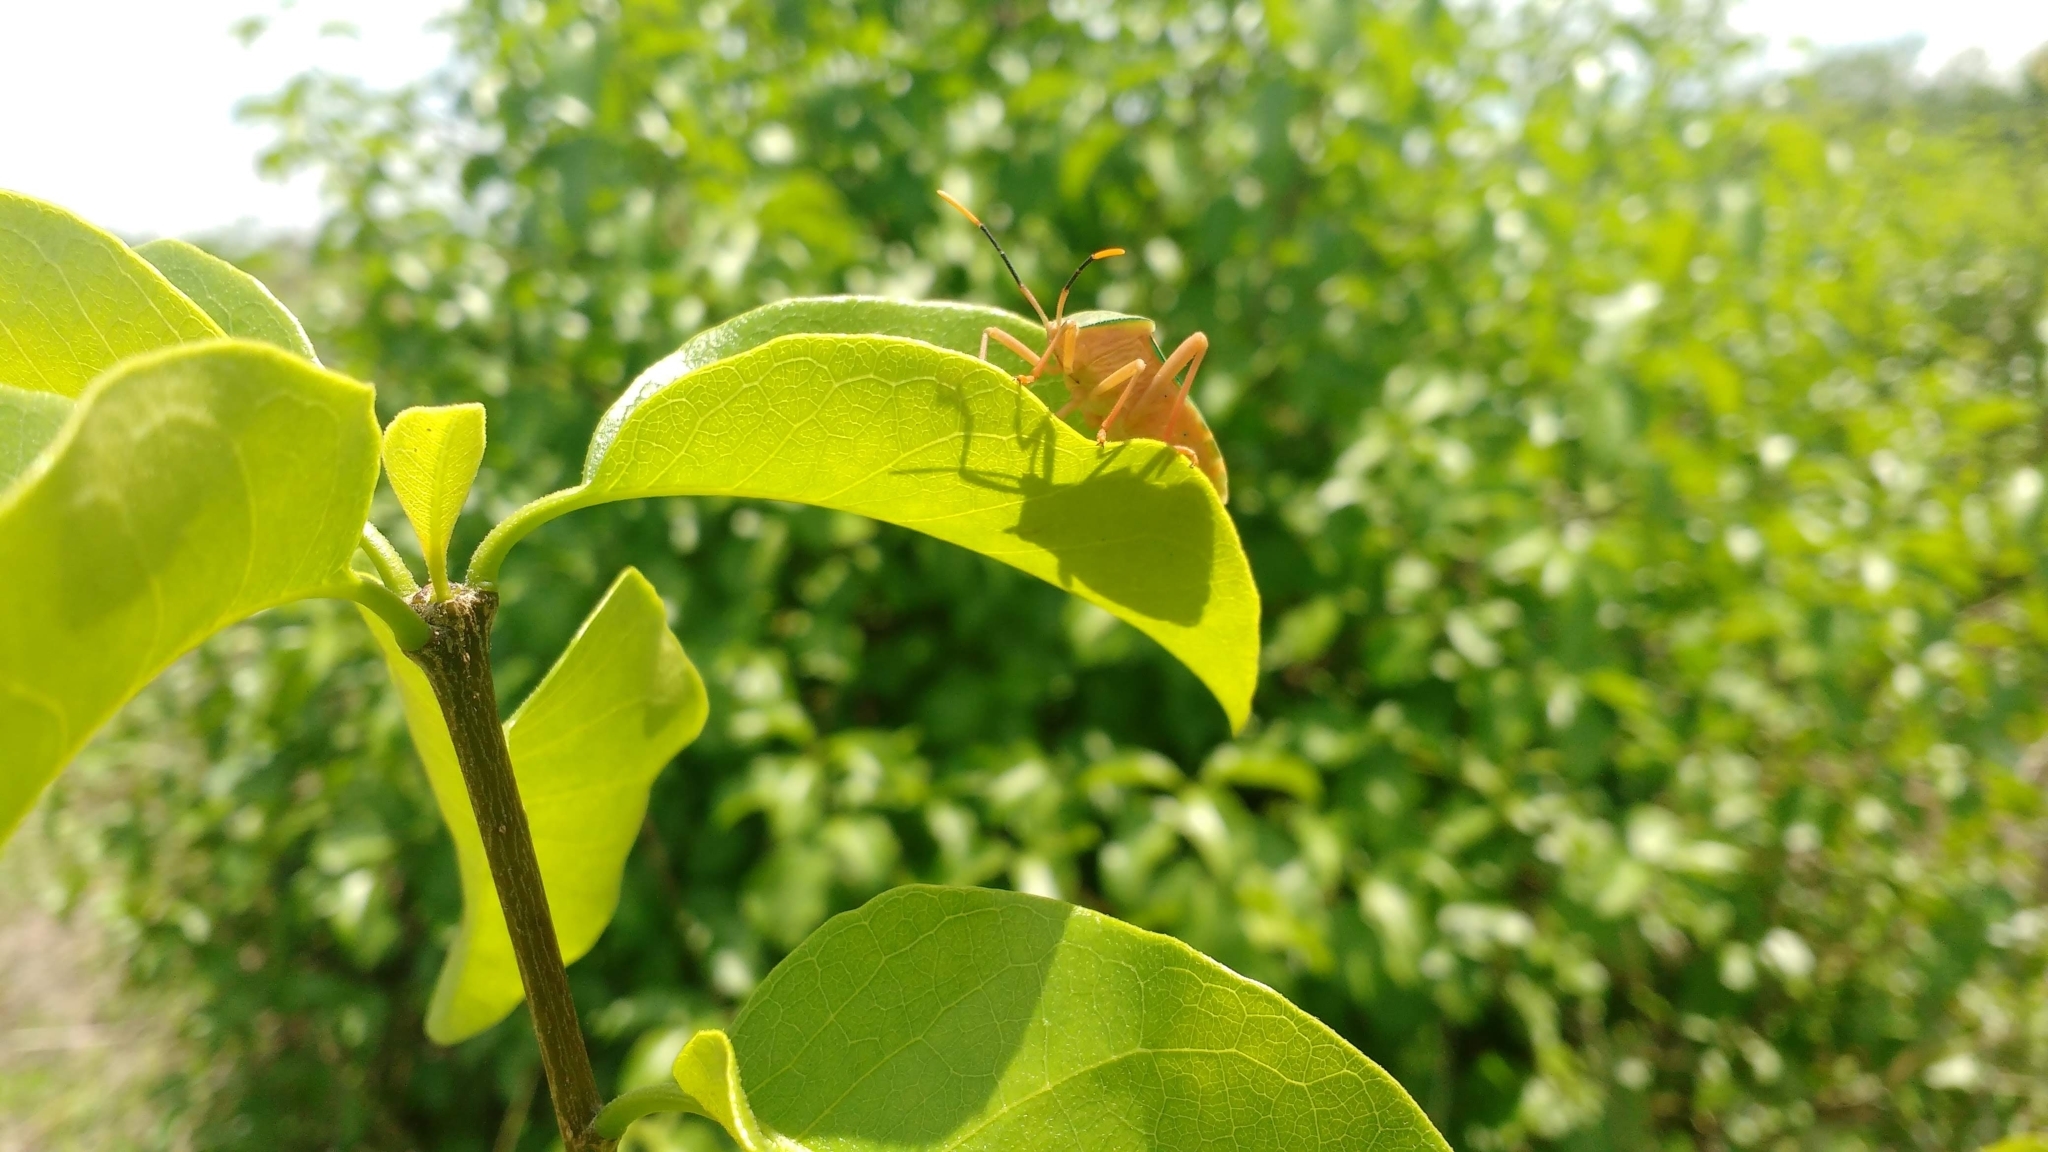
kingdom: Animalia
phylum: Arthropoda
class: Insecta
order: Hemiptera
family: Coreidae
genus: Cnemyrtus
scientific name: Cnemyrtus scriptus
